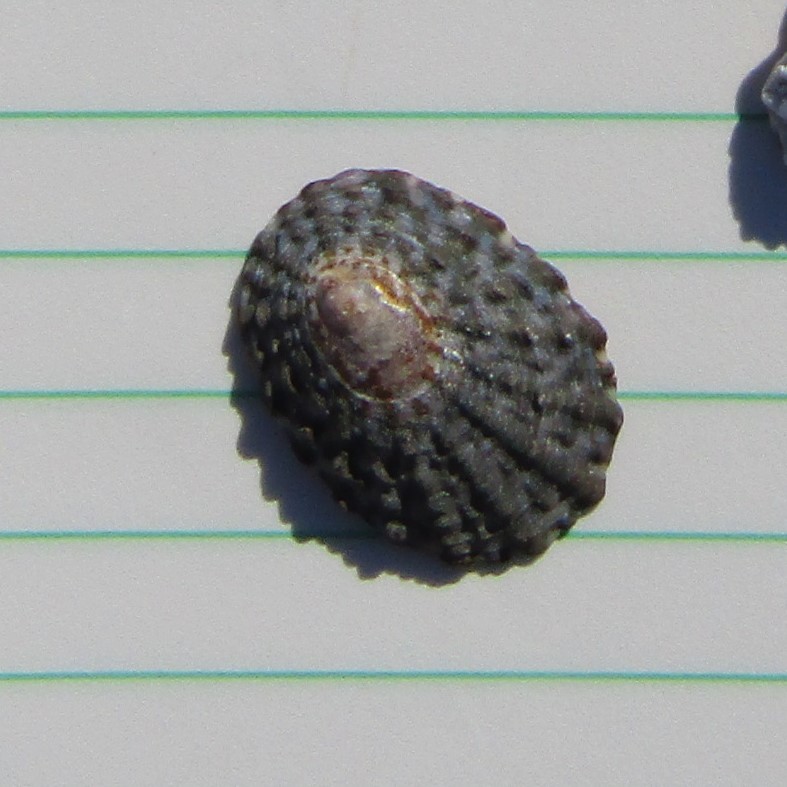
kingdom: Animalia
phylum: Mollusca
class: Gastropoda
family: Nacellidae
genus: Cellana
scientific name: Cellana denticulata
